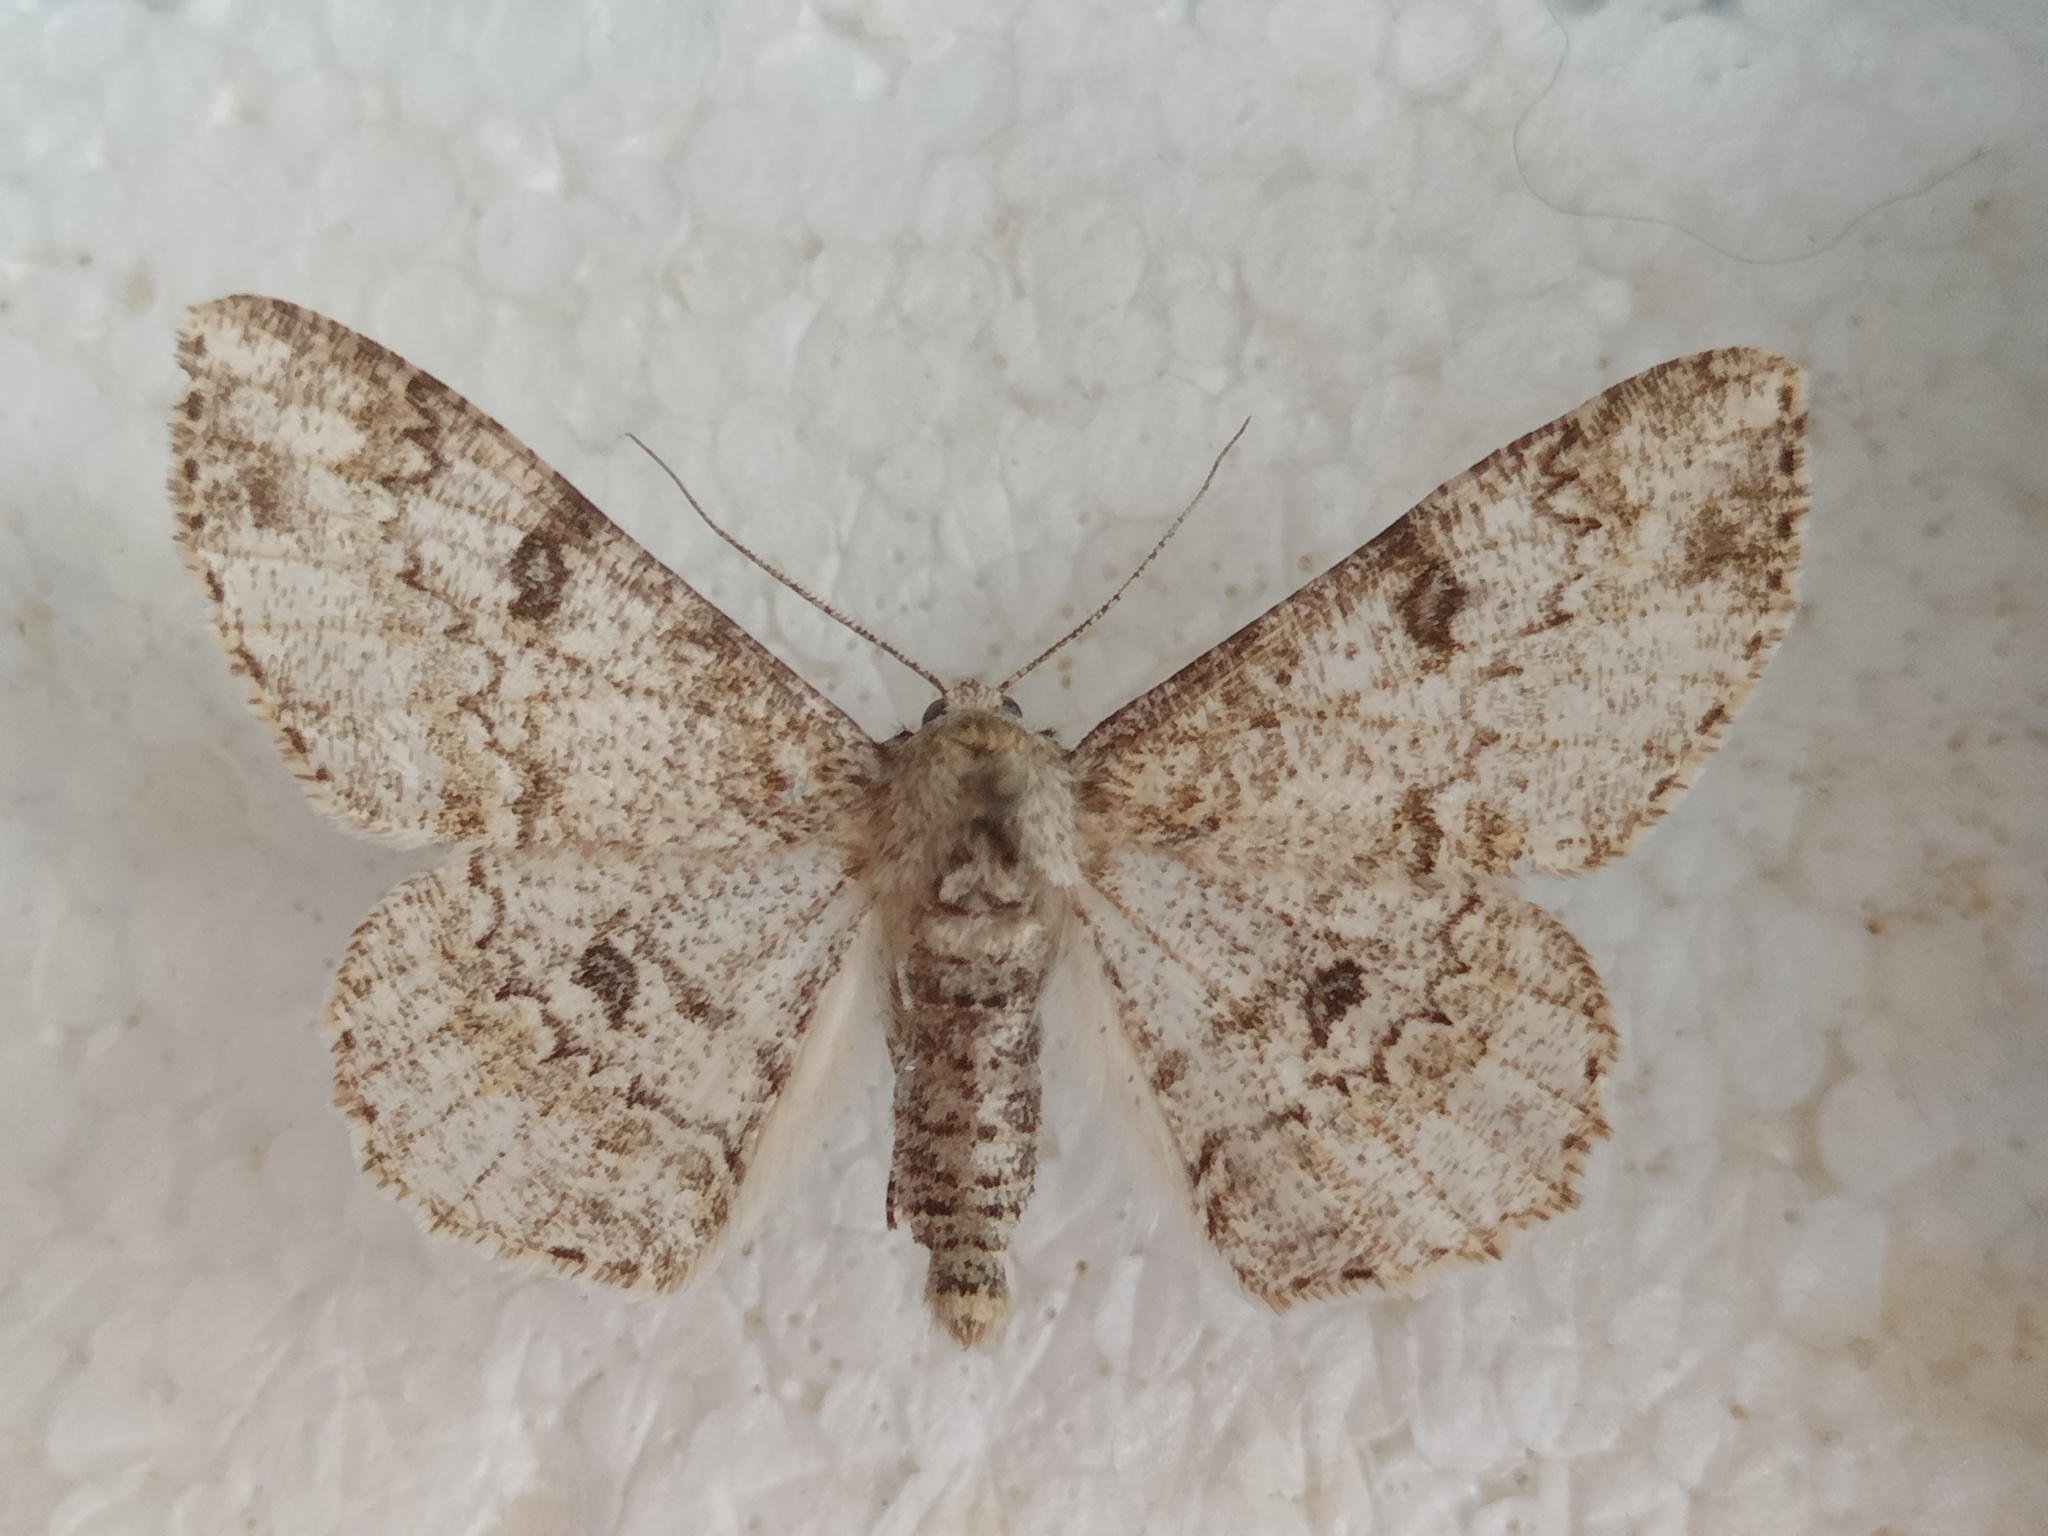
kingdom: Animalia
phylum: Arthropoda
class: Insecta
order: Lepidoptera
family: Geometridae
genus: Ascotis
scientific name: Ascotis selenaria
